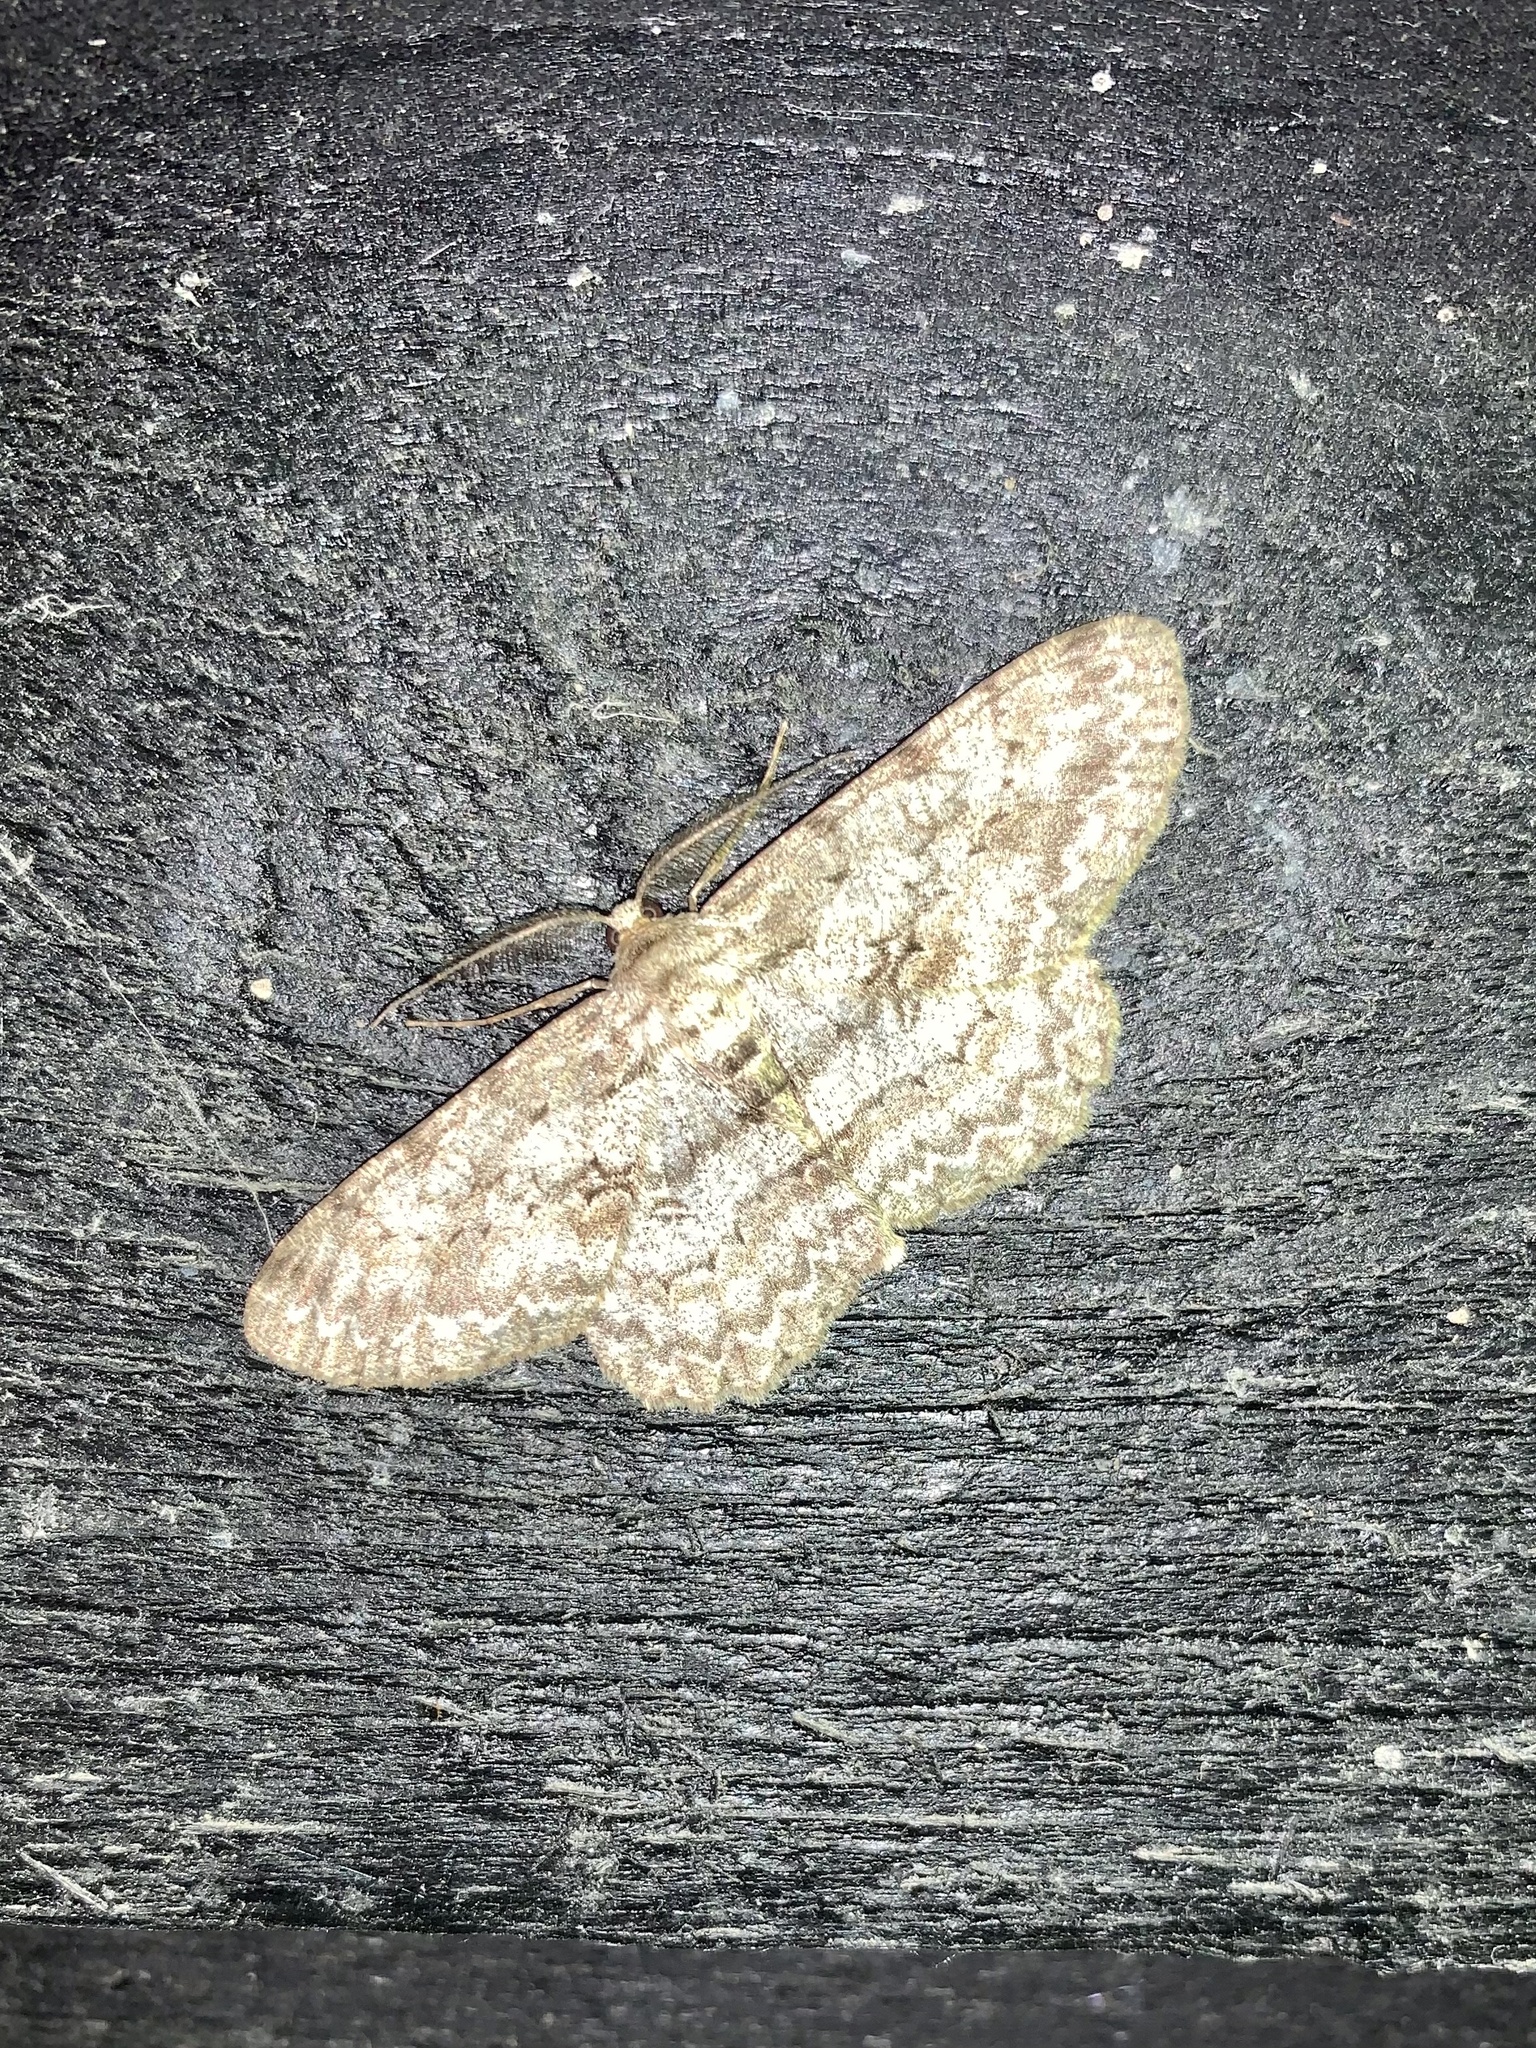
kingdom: Animalia
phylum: Arthropoda
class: Insecta
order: Lepidoptera
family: Geometridae
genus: Hypomecis
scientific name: Hypomecis punctinalis
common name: Pale oak beauty
